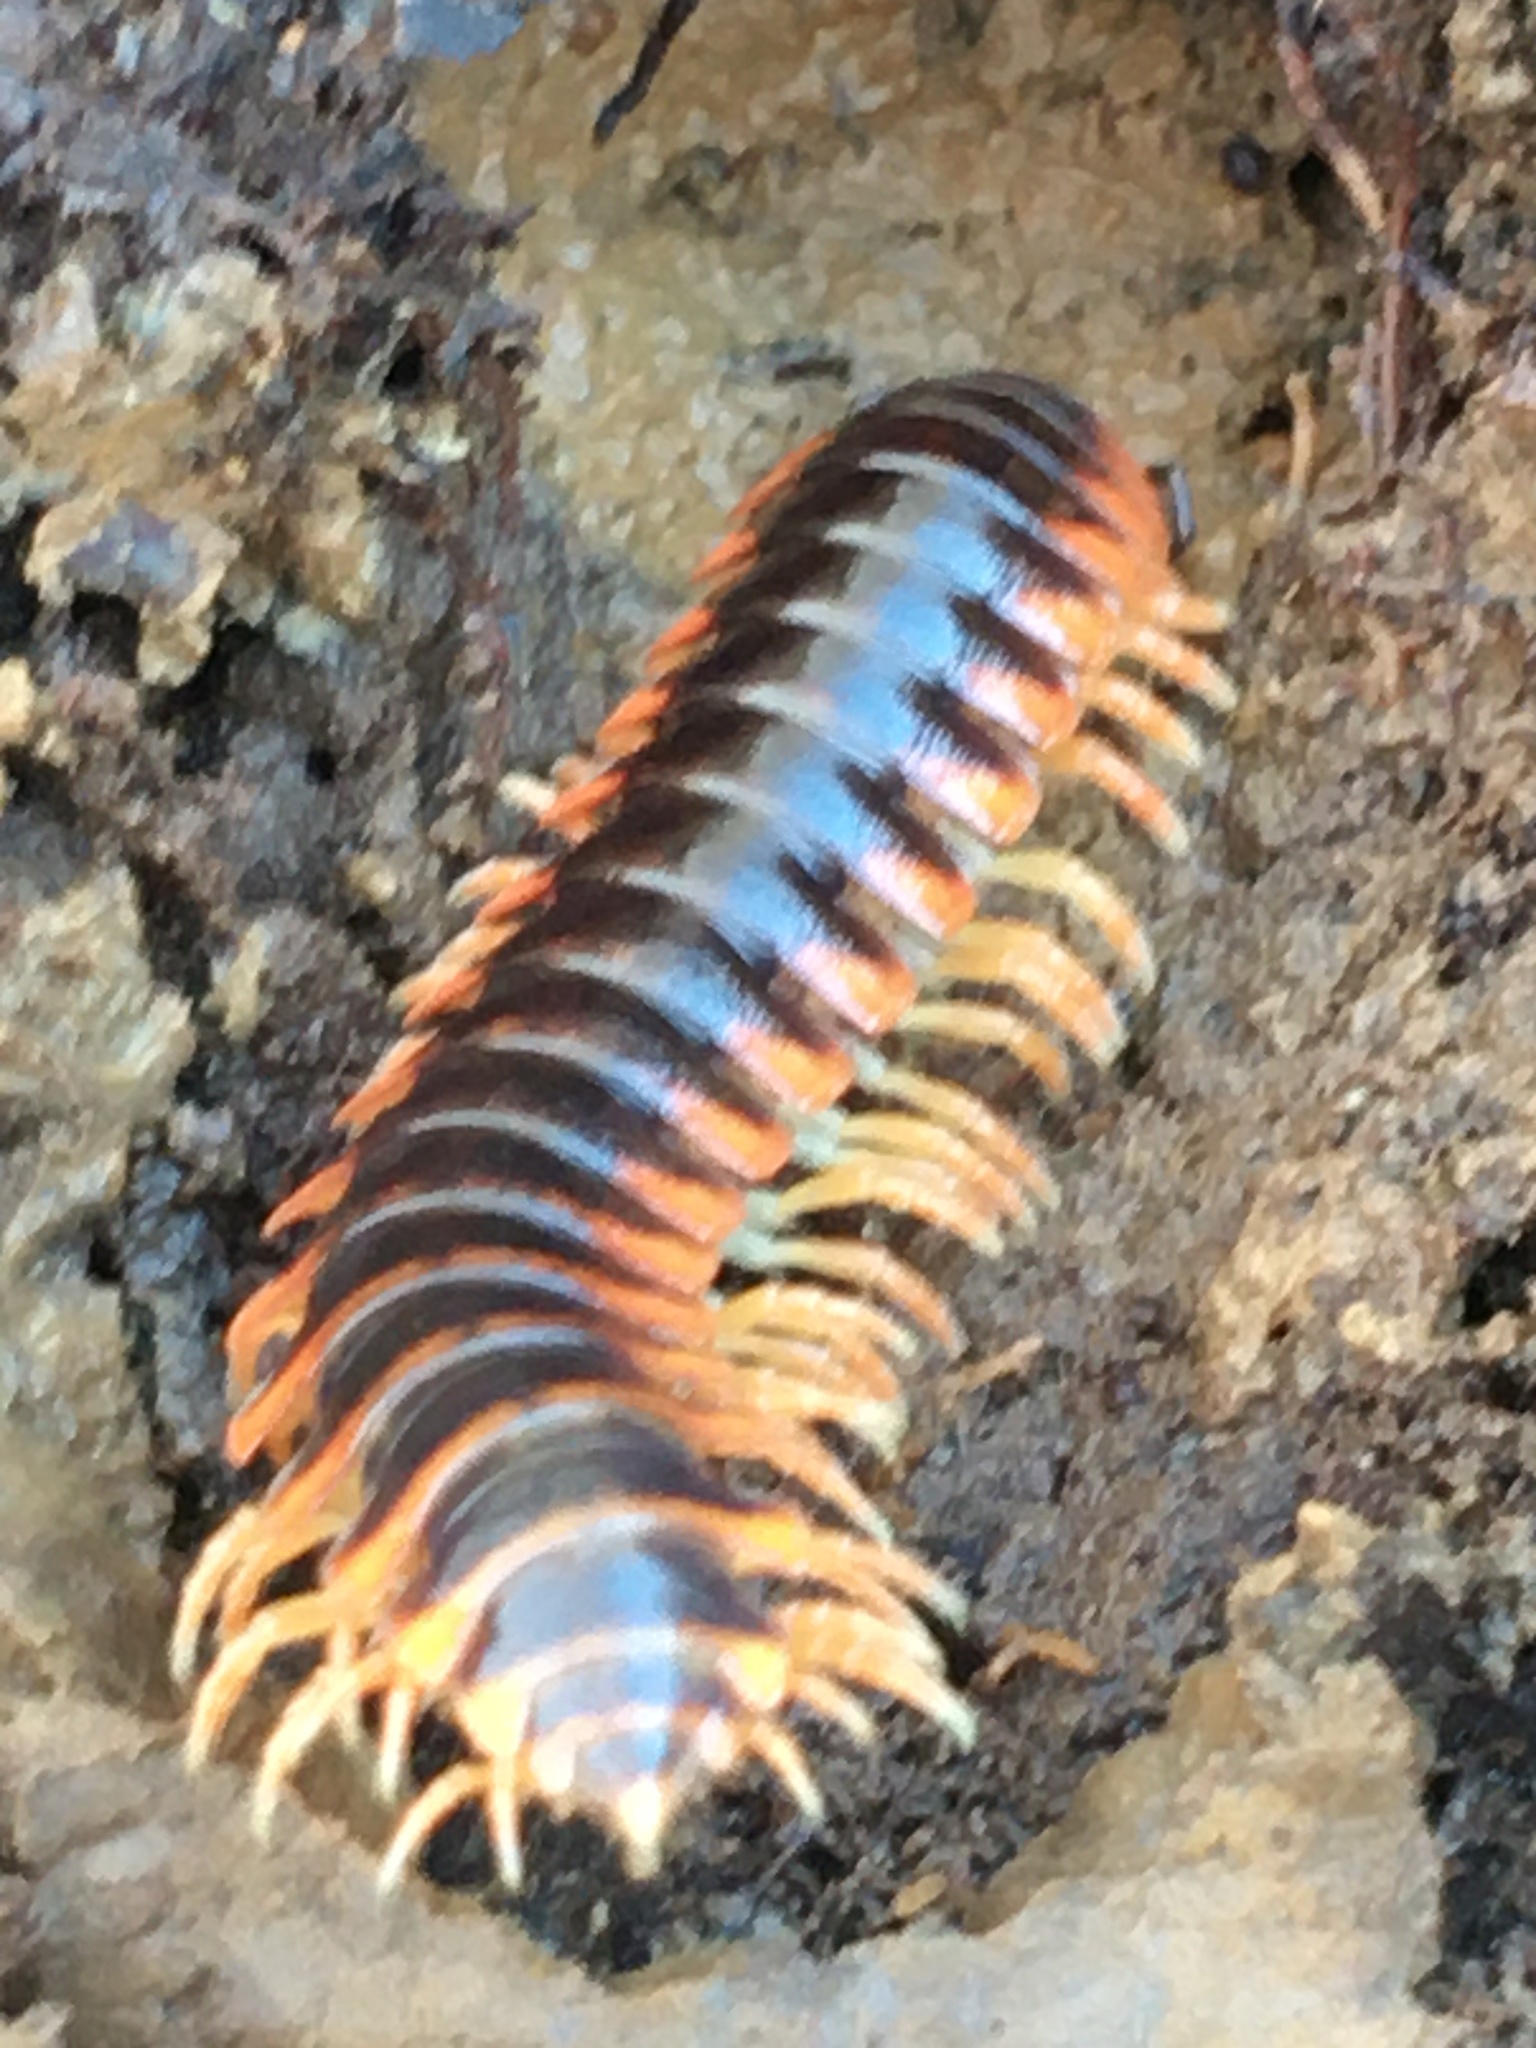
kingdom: Animalia
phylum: Arthropoda
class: Diplopoda
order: Polydesmida
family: Xystodesmidae
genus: Apheloria
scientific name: Apheloria virginiensis
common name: Black-and-gold flat millipede
